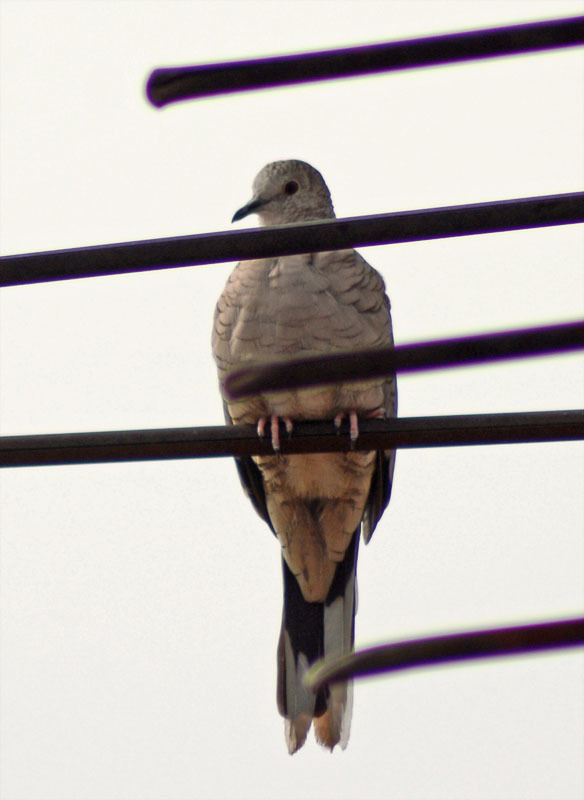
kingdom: Animalia
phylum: Chordata
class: Aves
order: Columbiformes
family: Columbidae
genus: Columbina
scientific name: Columbina inca
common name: Inca dove
